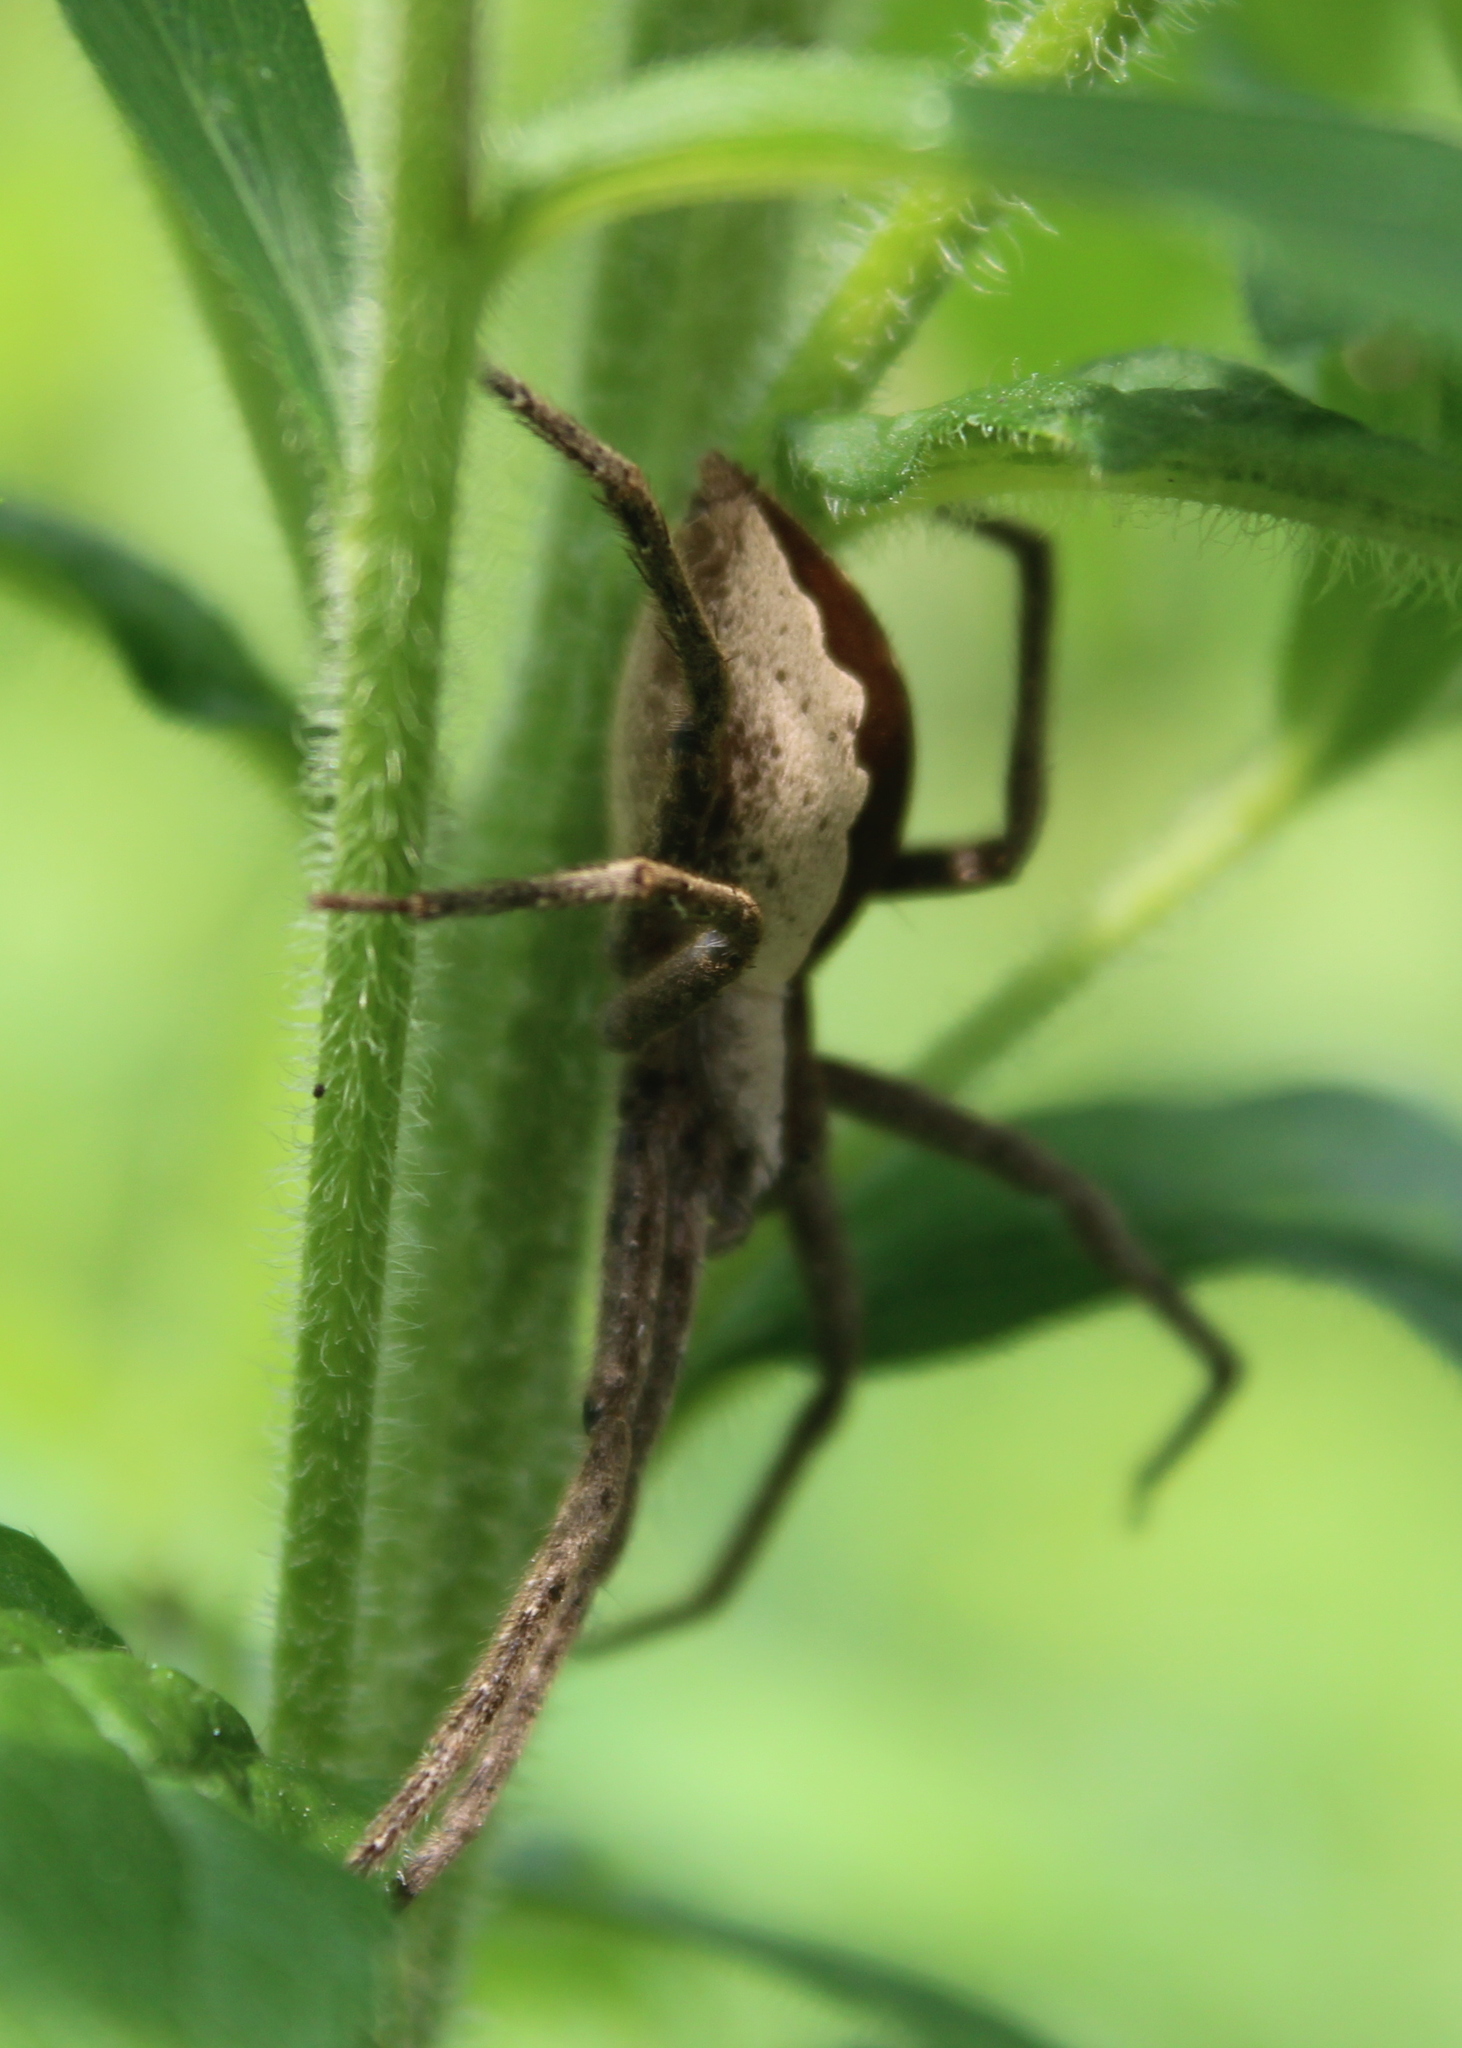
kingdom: Animalia
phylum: Arthropoda
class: Arachnida
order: Araneae
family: Pisauridae
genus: Pisaurina
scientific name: Pisaurina mira
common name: American nursery web spider
